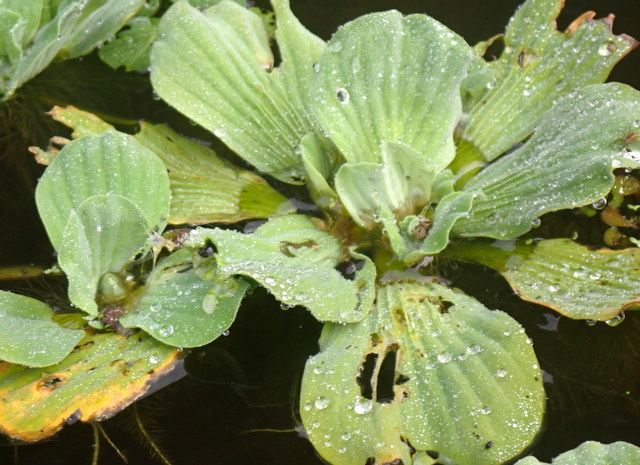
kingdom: Plantae
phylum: Tracheophyta
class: Liliopsida
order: Alismatales
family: Araceae
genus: Pistia
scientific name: Pistia stratiotes
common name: Water lettuce
